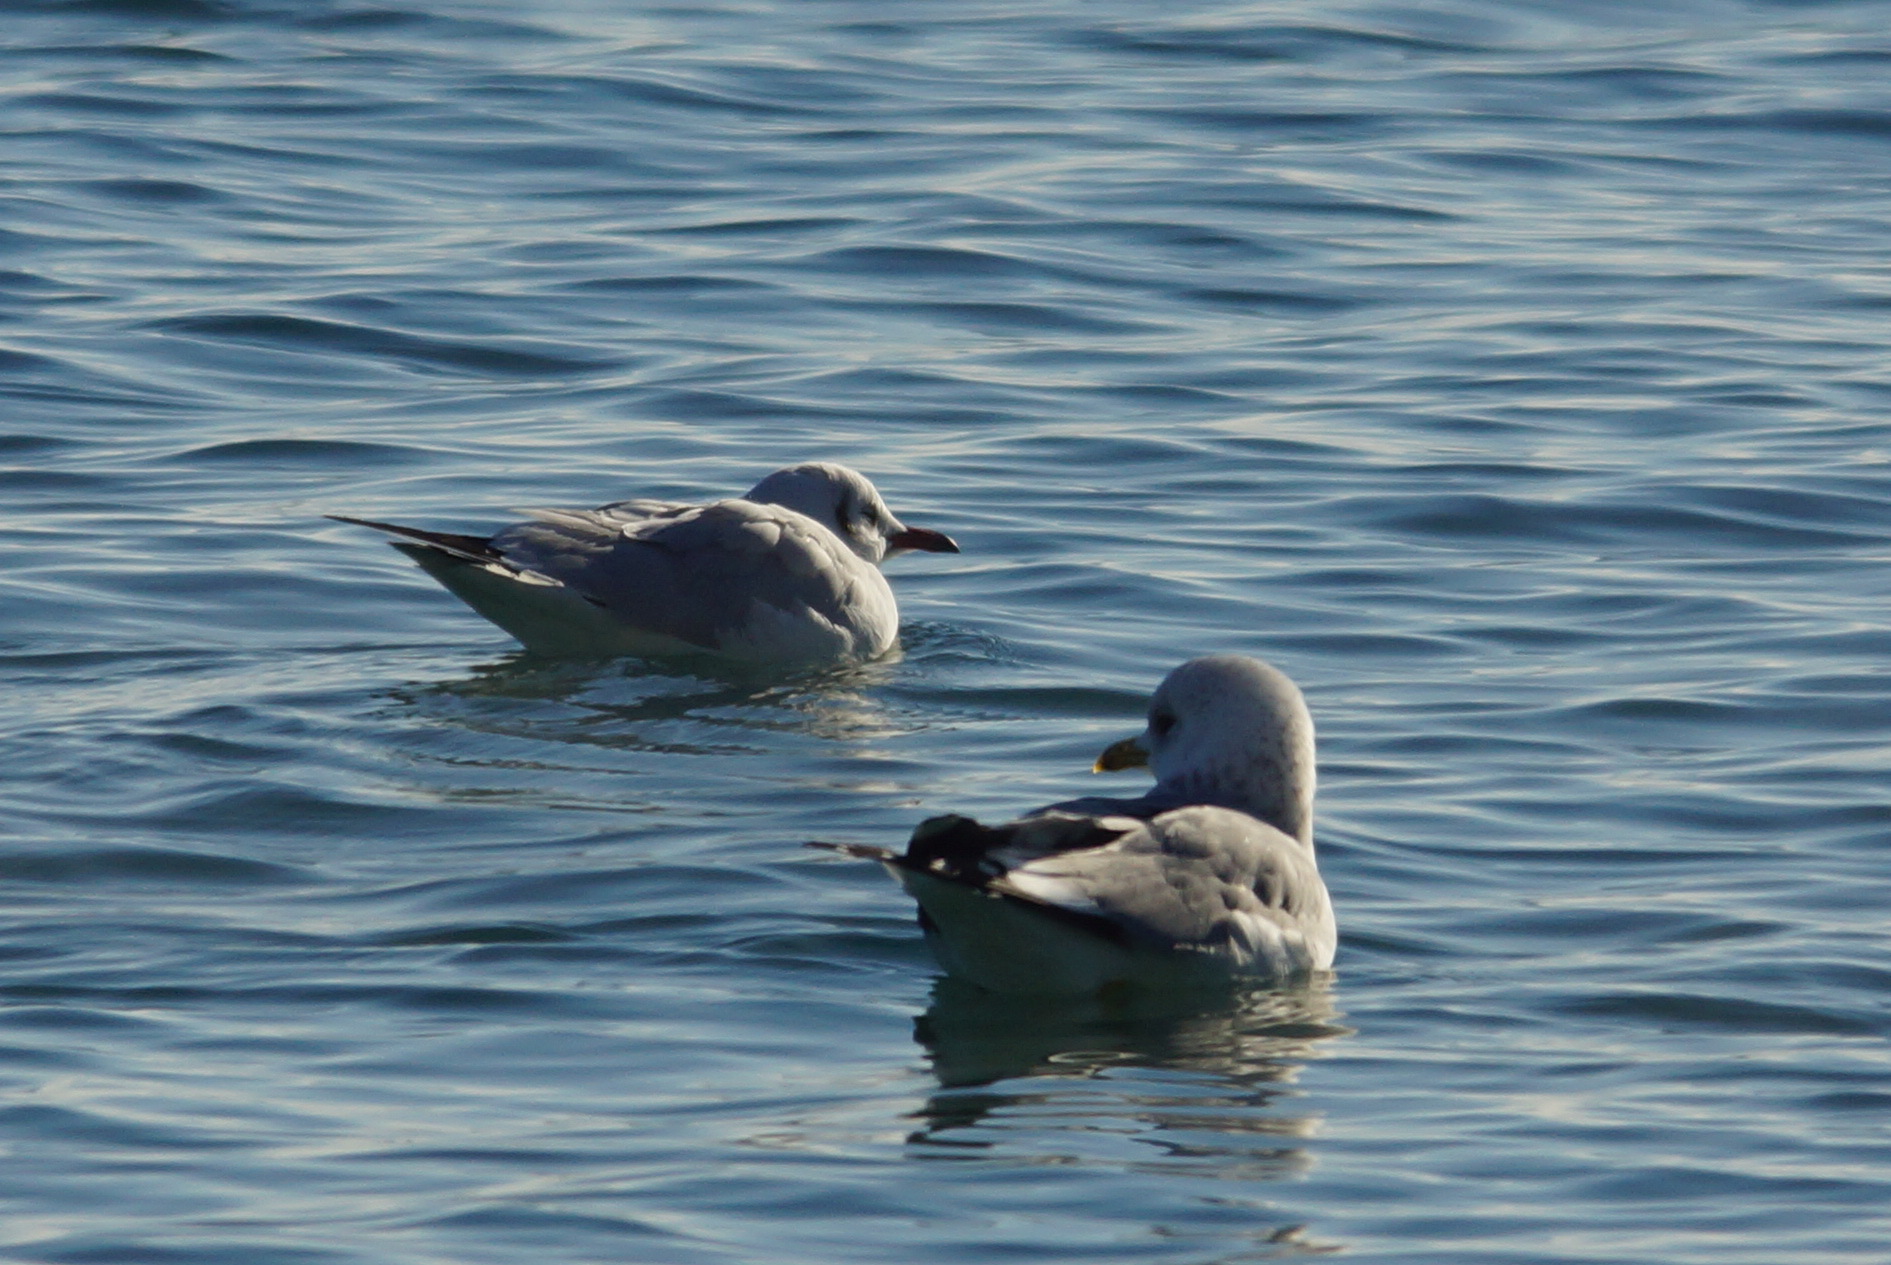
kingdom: Animalia
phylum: Chordata
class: Aves
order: Charadriiformes
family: Laridae
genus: Larus
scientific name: Larus canus
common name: Mew gull
